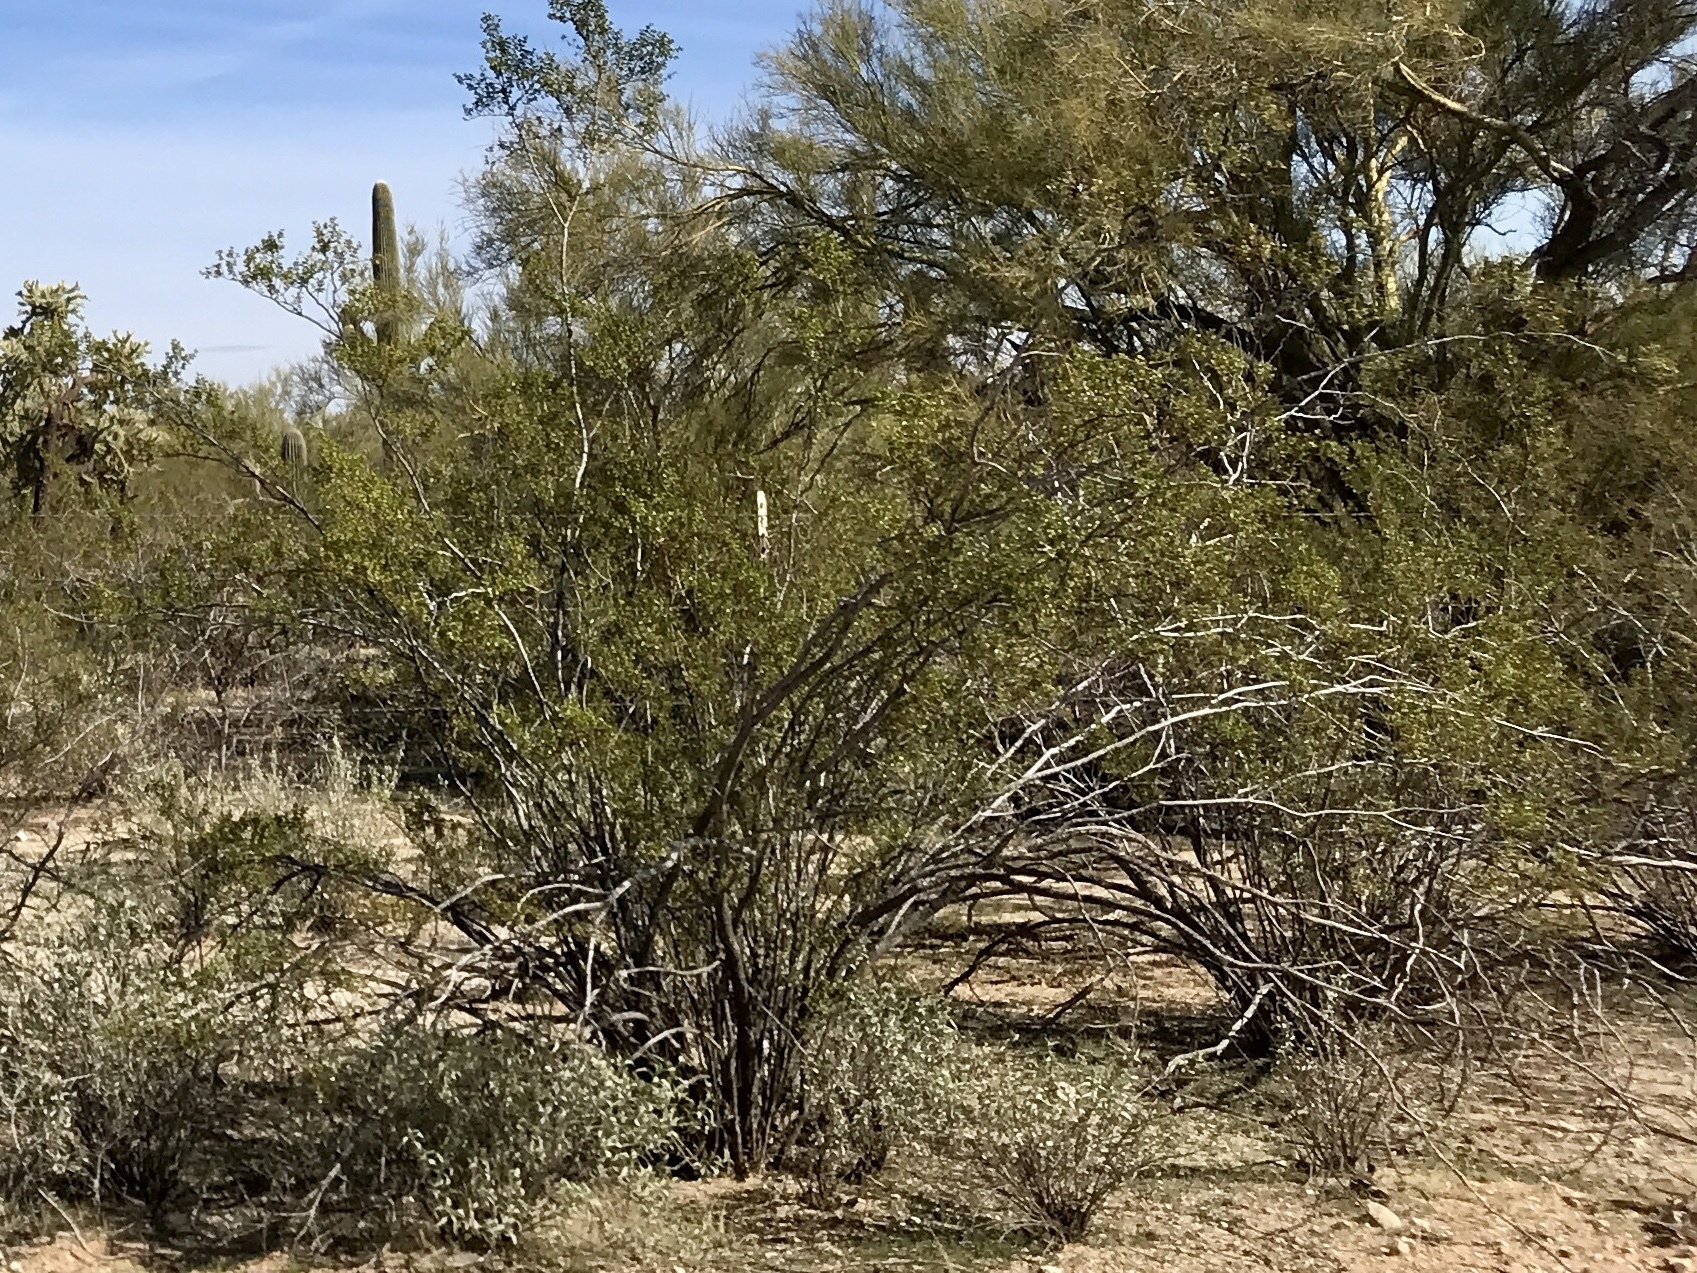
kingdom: Plantae
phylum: Tracheophyta
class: Magnoliopsida
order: Zygophyllales
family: Zygophyllaceae
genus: Larrea
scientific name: Larrea tridentata
